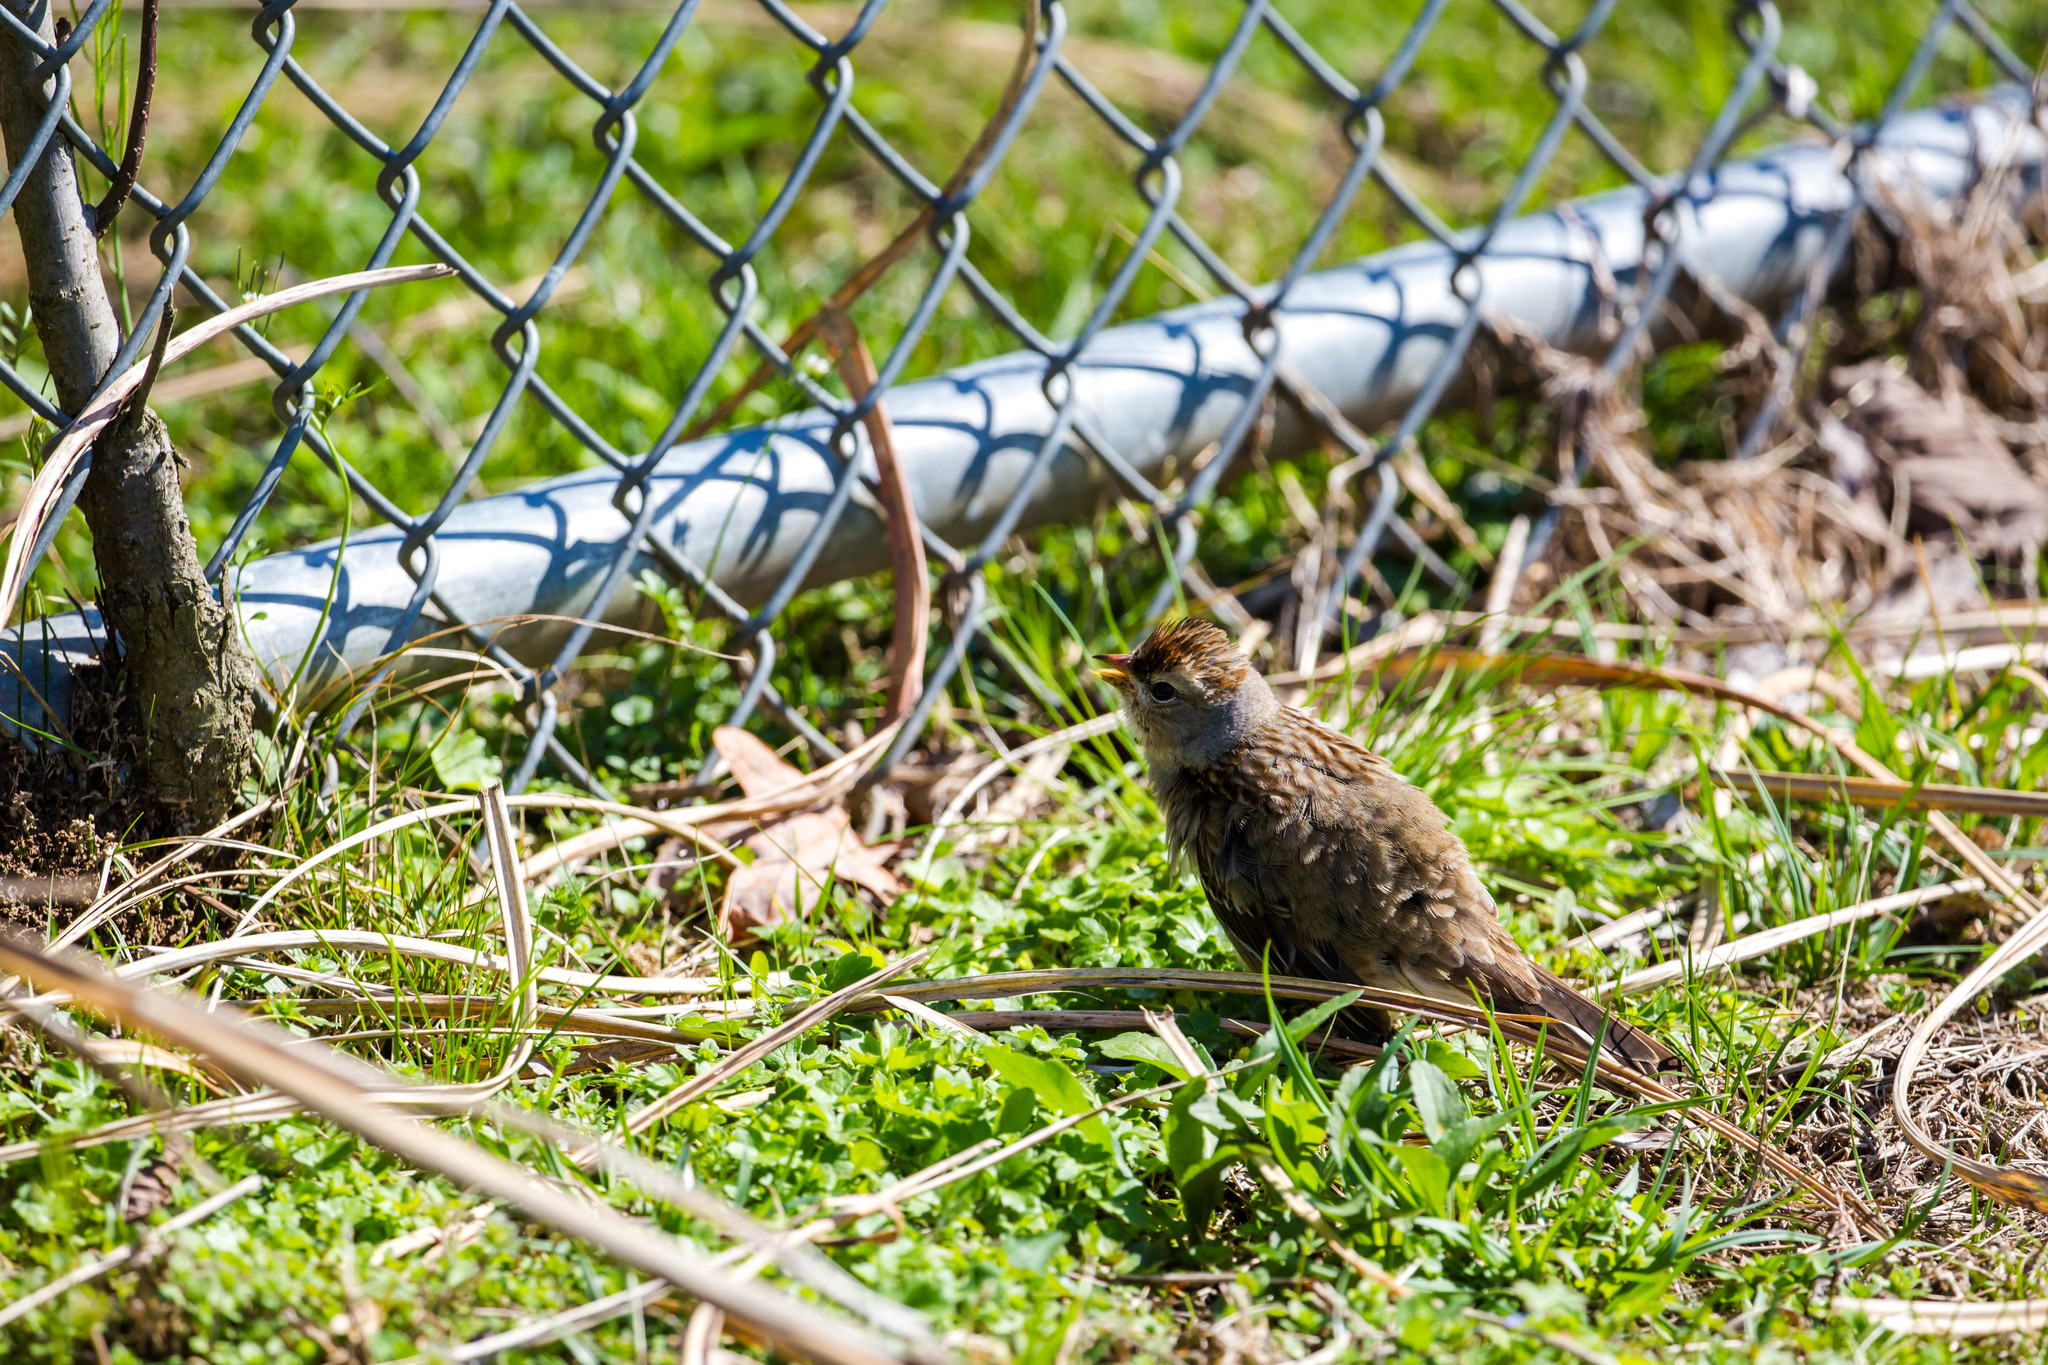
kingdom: Animalia
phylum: Chordata
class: Aves
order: Passeriformes
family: Passerellidae
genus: Zonotrichia
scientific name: Zonotrichia leucophrys
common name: White-crowned sparrow
